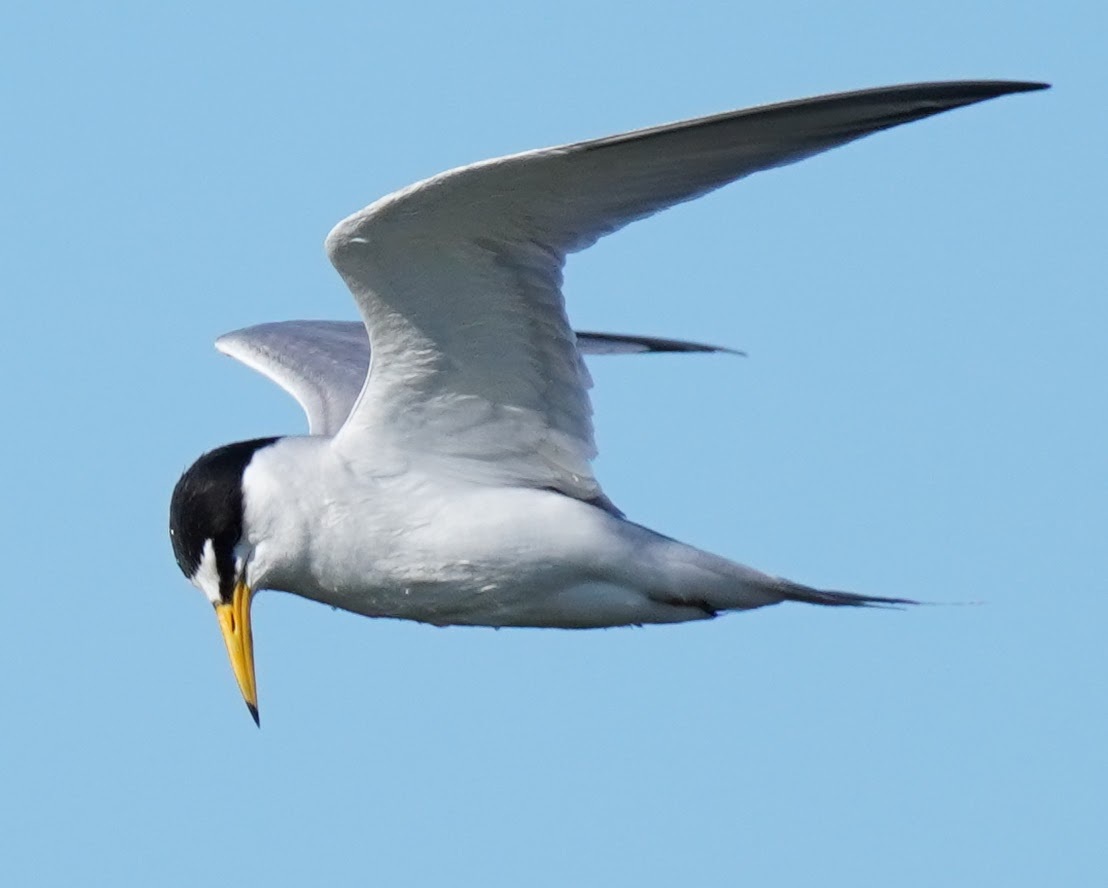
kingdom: Animalia
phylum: Chordata
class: Aves
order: Charadriiformes
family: Laridae
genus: Sternula
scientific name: Sternula antillarum
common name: Least tern
